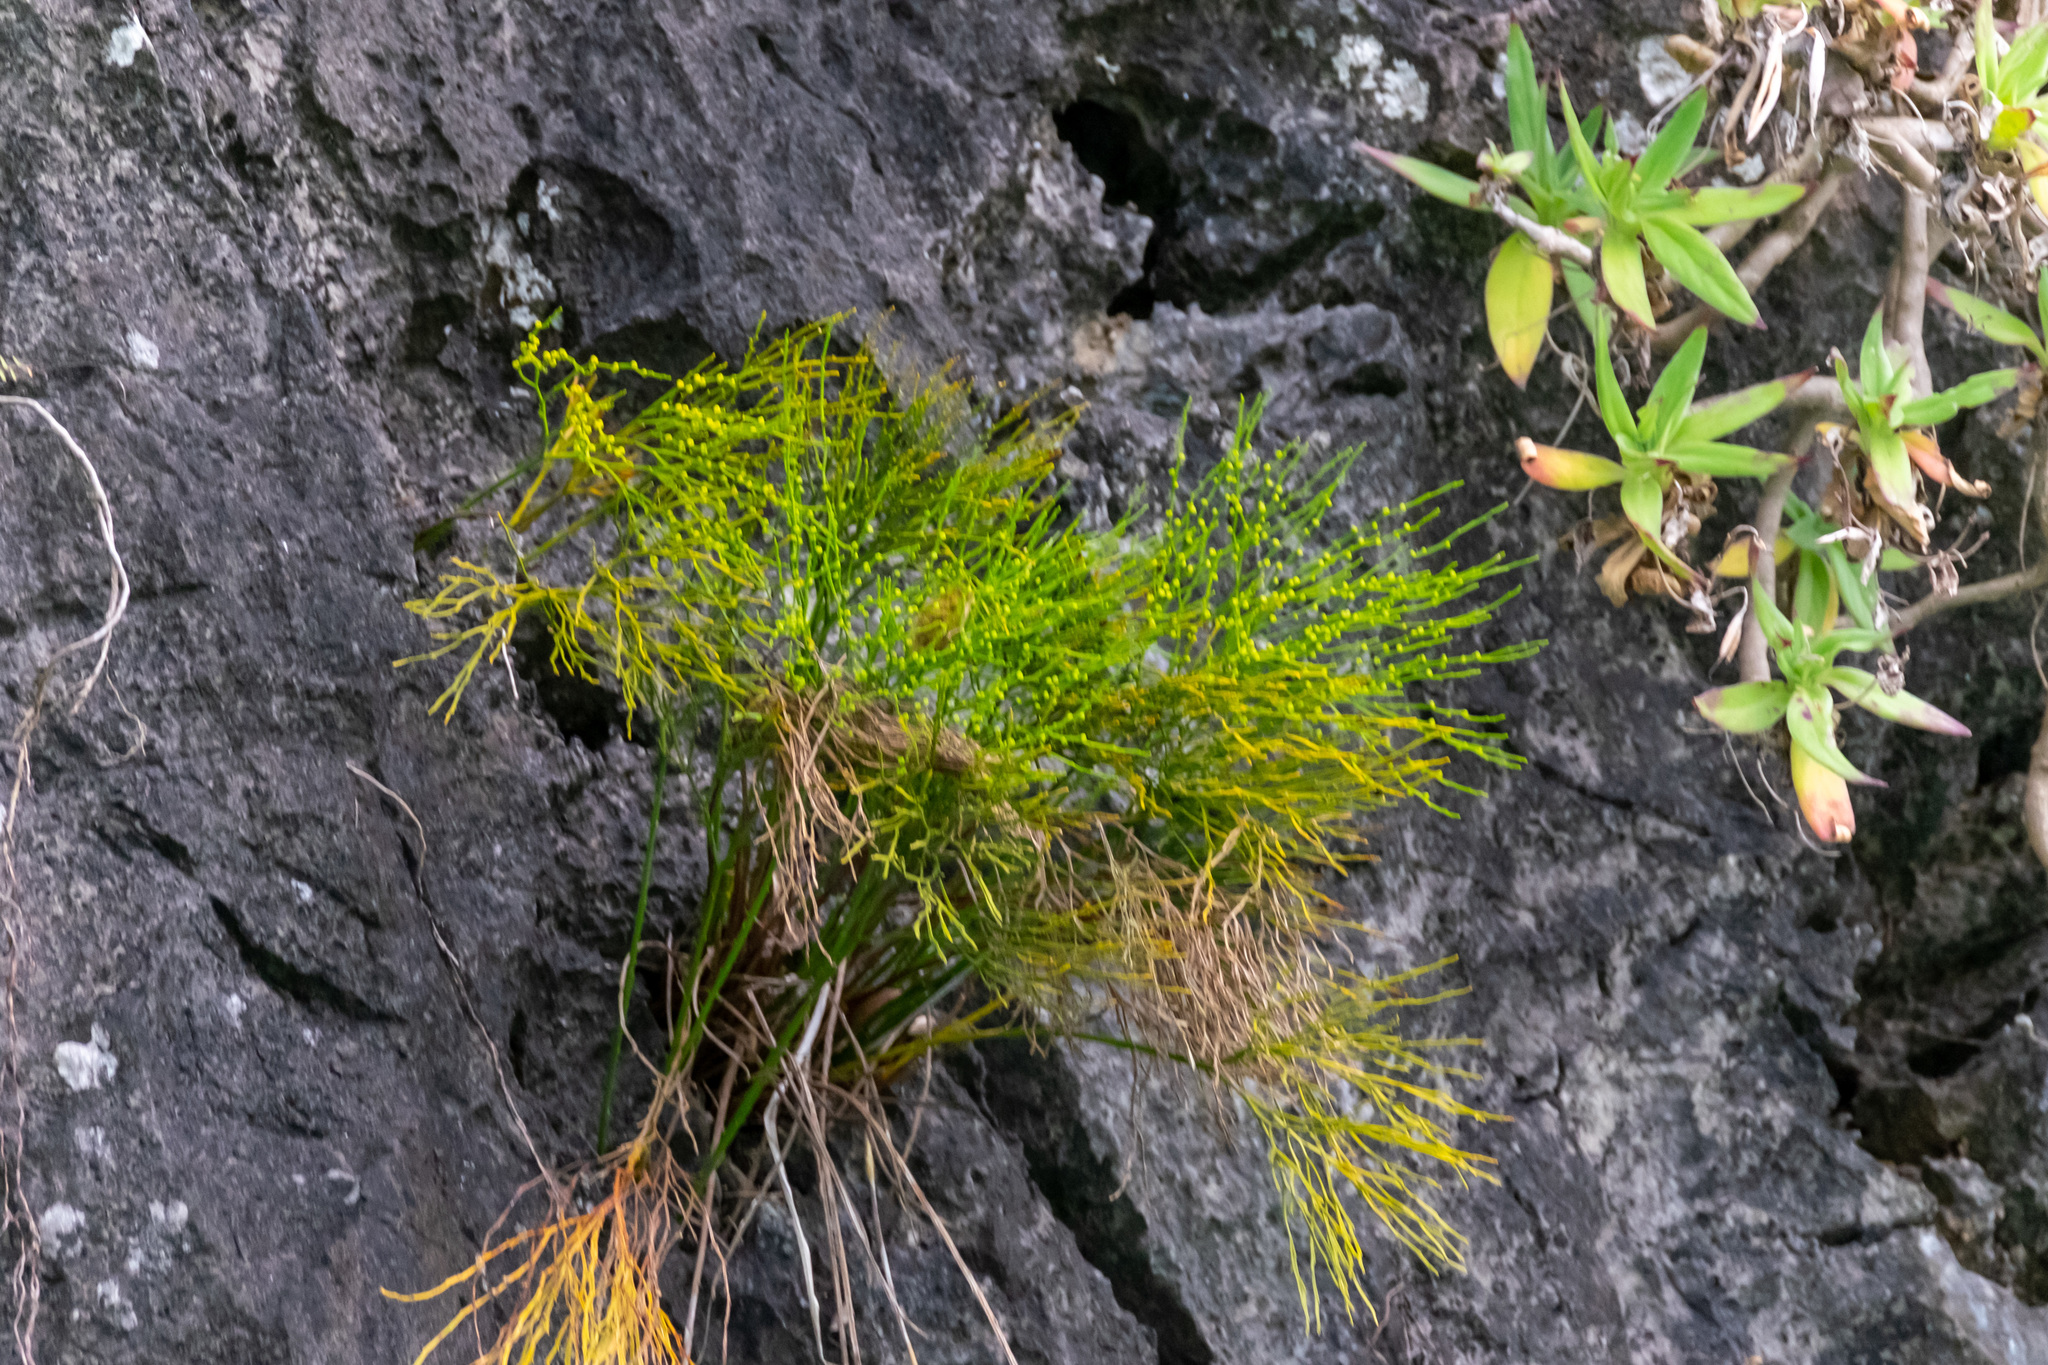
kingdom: Plantae
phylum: Tracheophyta
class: Polypodiopsida
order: Psilotales
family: Psilotaceae
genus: Psilotum
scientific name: Psilotum nudum
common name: Skeleton fork fern
